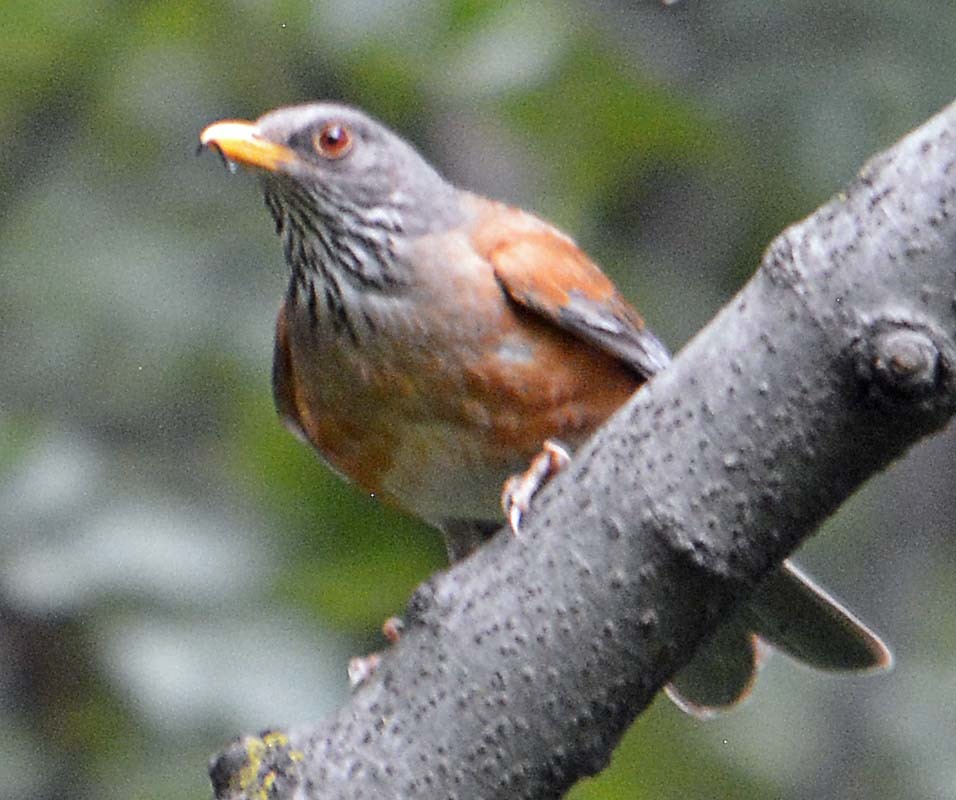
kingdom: Animalia
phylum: Chordata
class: Aves
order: Passeriformes
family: Turdidae
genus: Turdus
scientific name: Turdus rufopalliatus
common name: Rufous-backed robin
